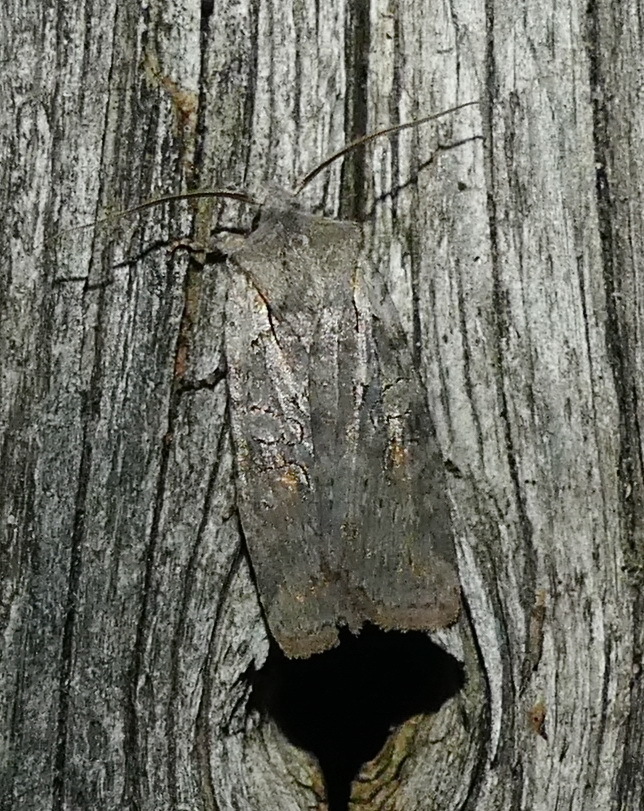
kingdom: Animalia
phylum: Arthropoda
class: Insecta
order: Lepidoptera
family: Noctuidae
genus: Lithophane
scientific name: Lithophane antennata
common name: Ashen pinion
